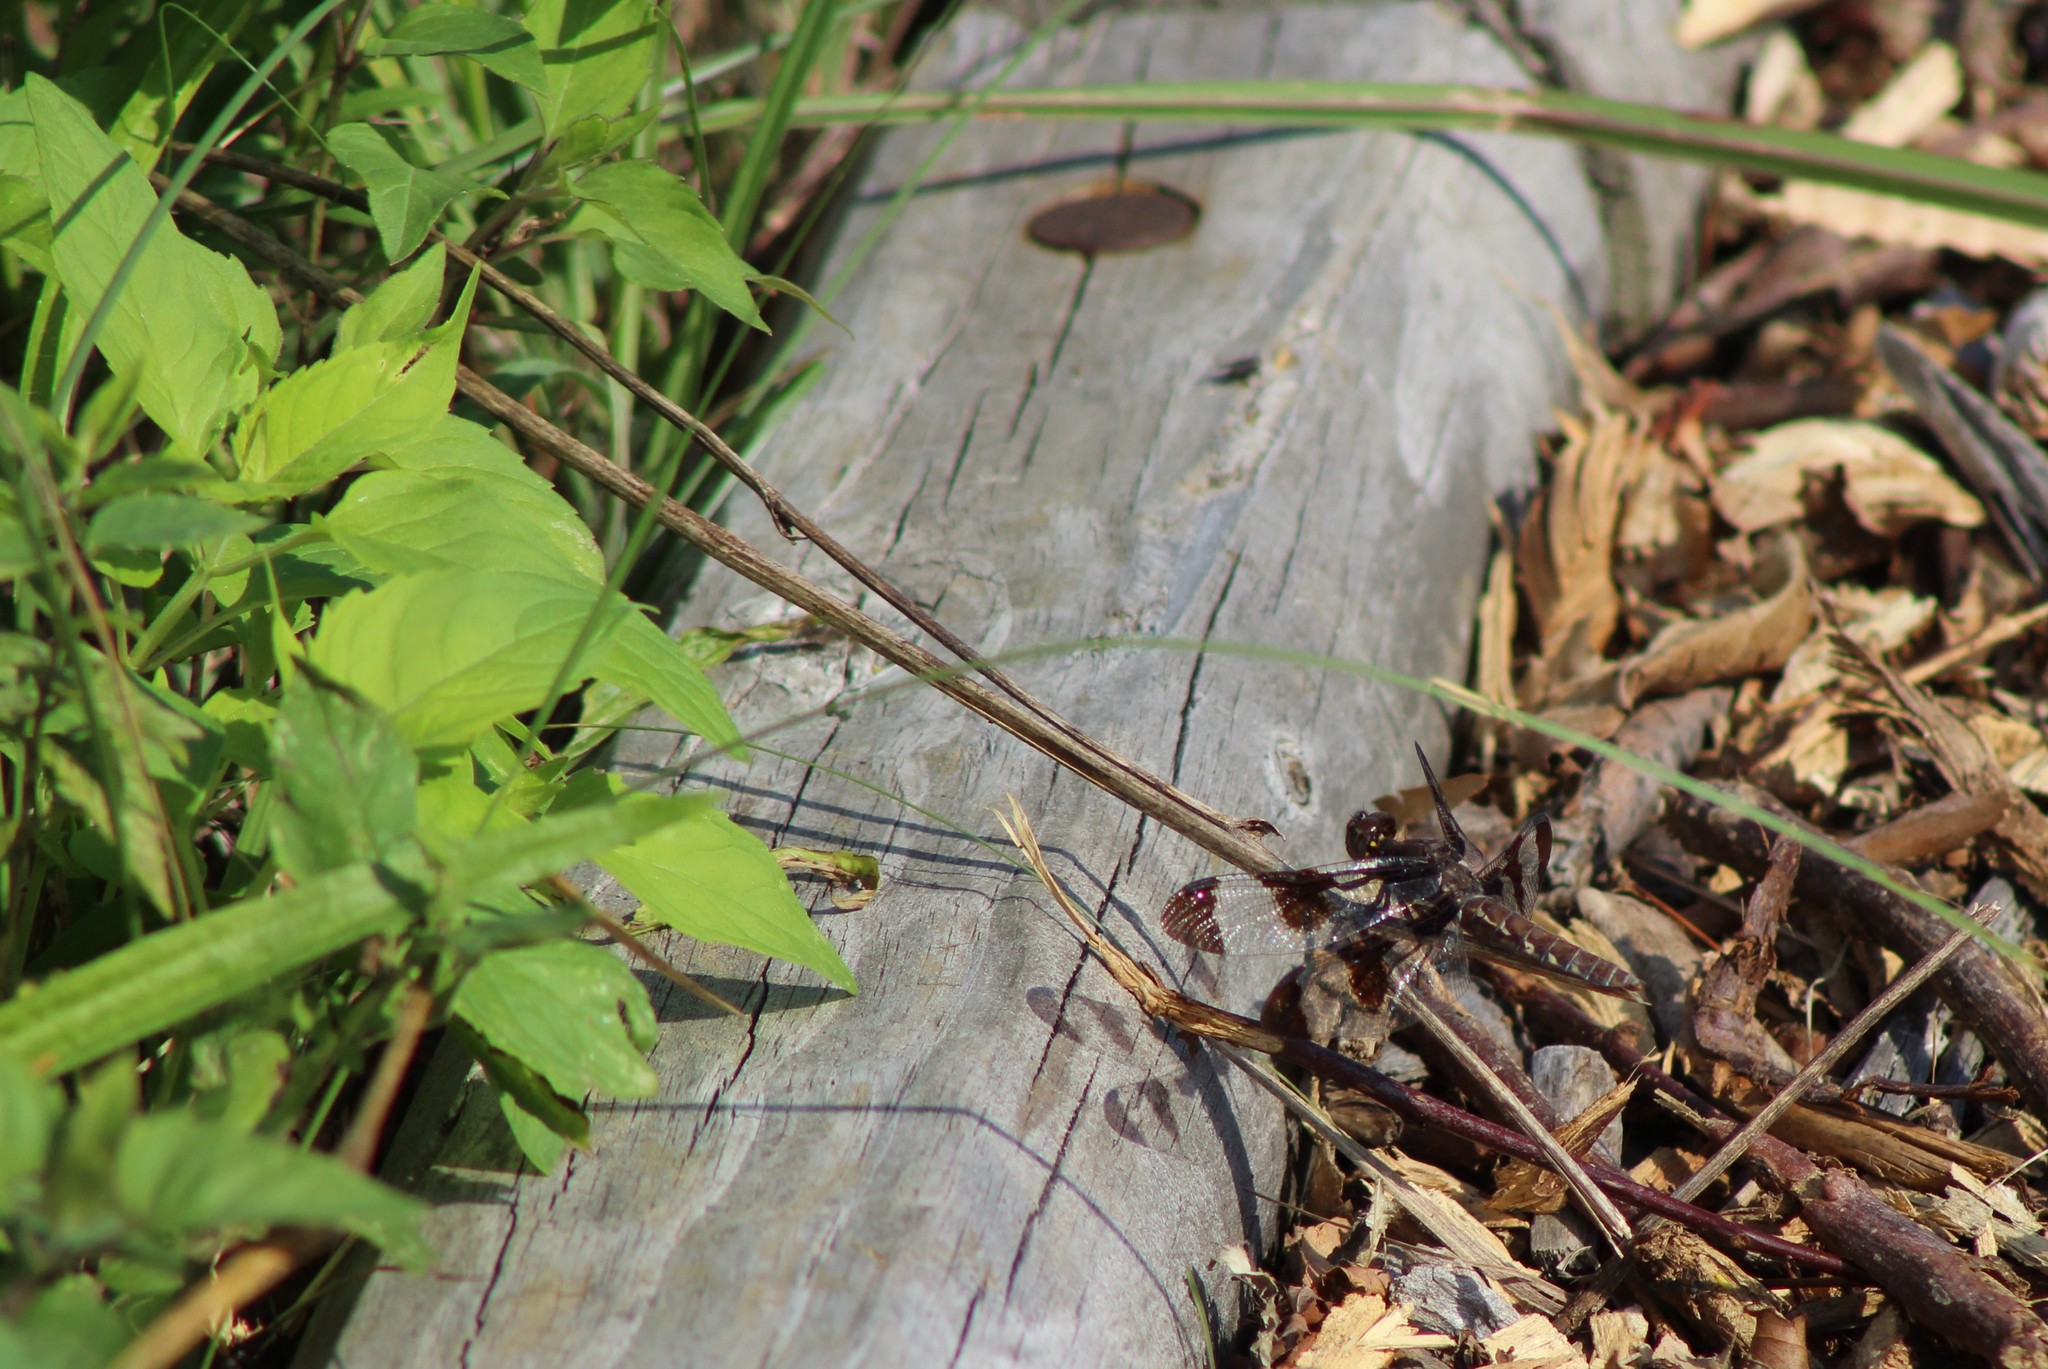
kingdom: Animalia
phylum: Arthropoda
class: Insecta
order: Odonata
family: Libellulidae
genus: Plathemis
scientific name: Plathemis lydia
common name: Common whitetail
